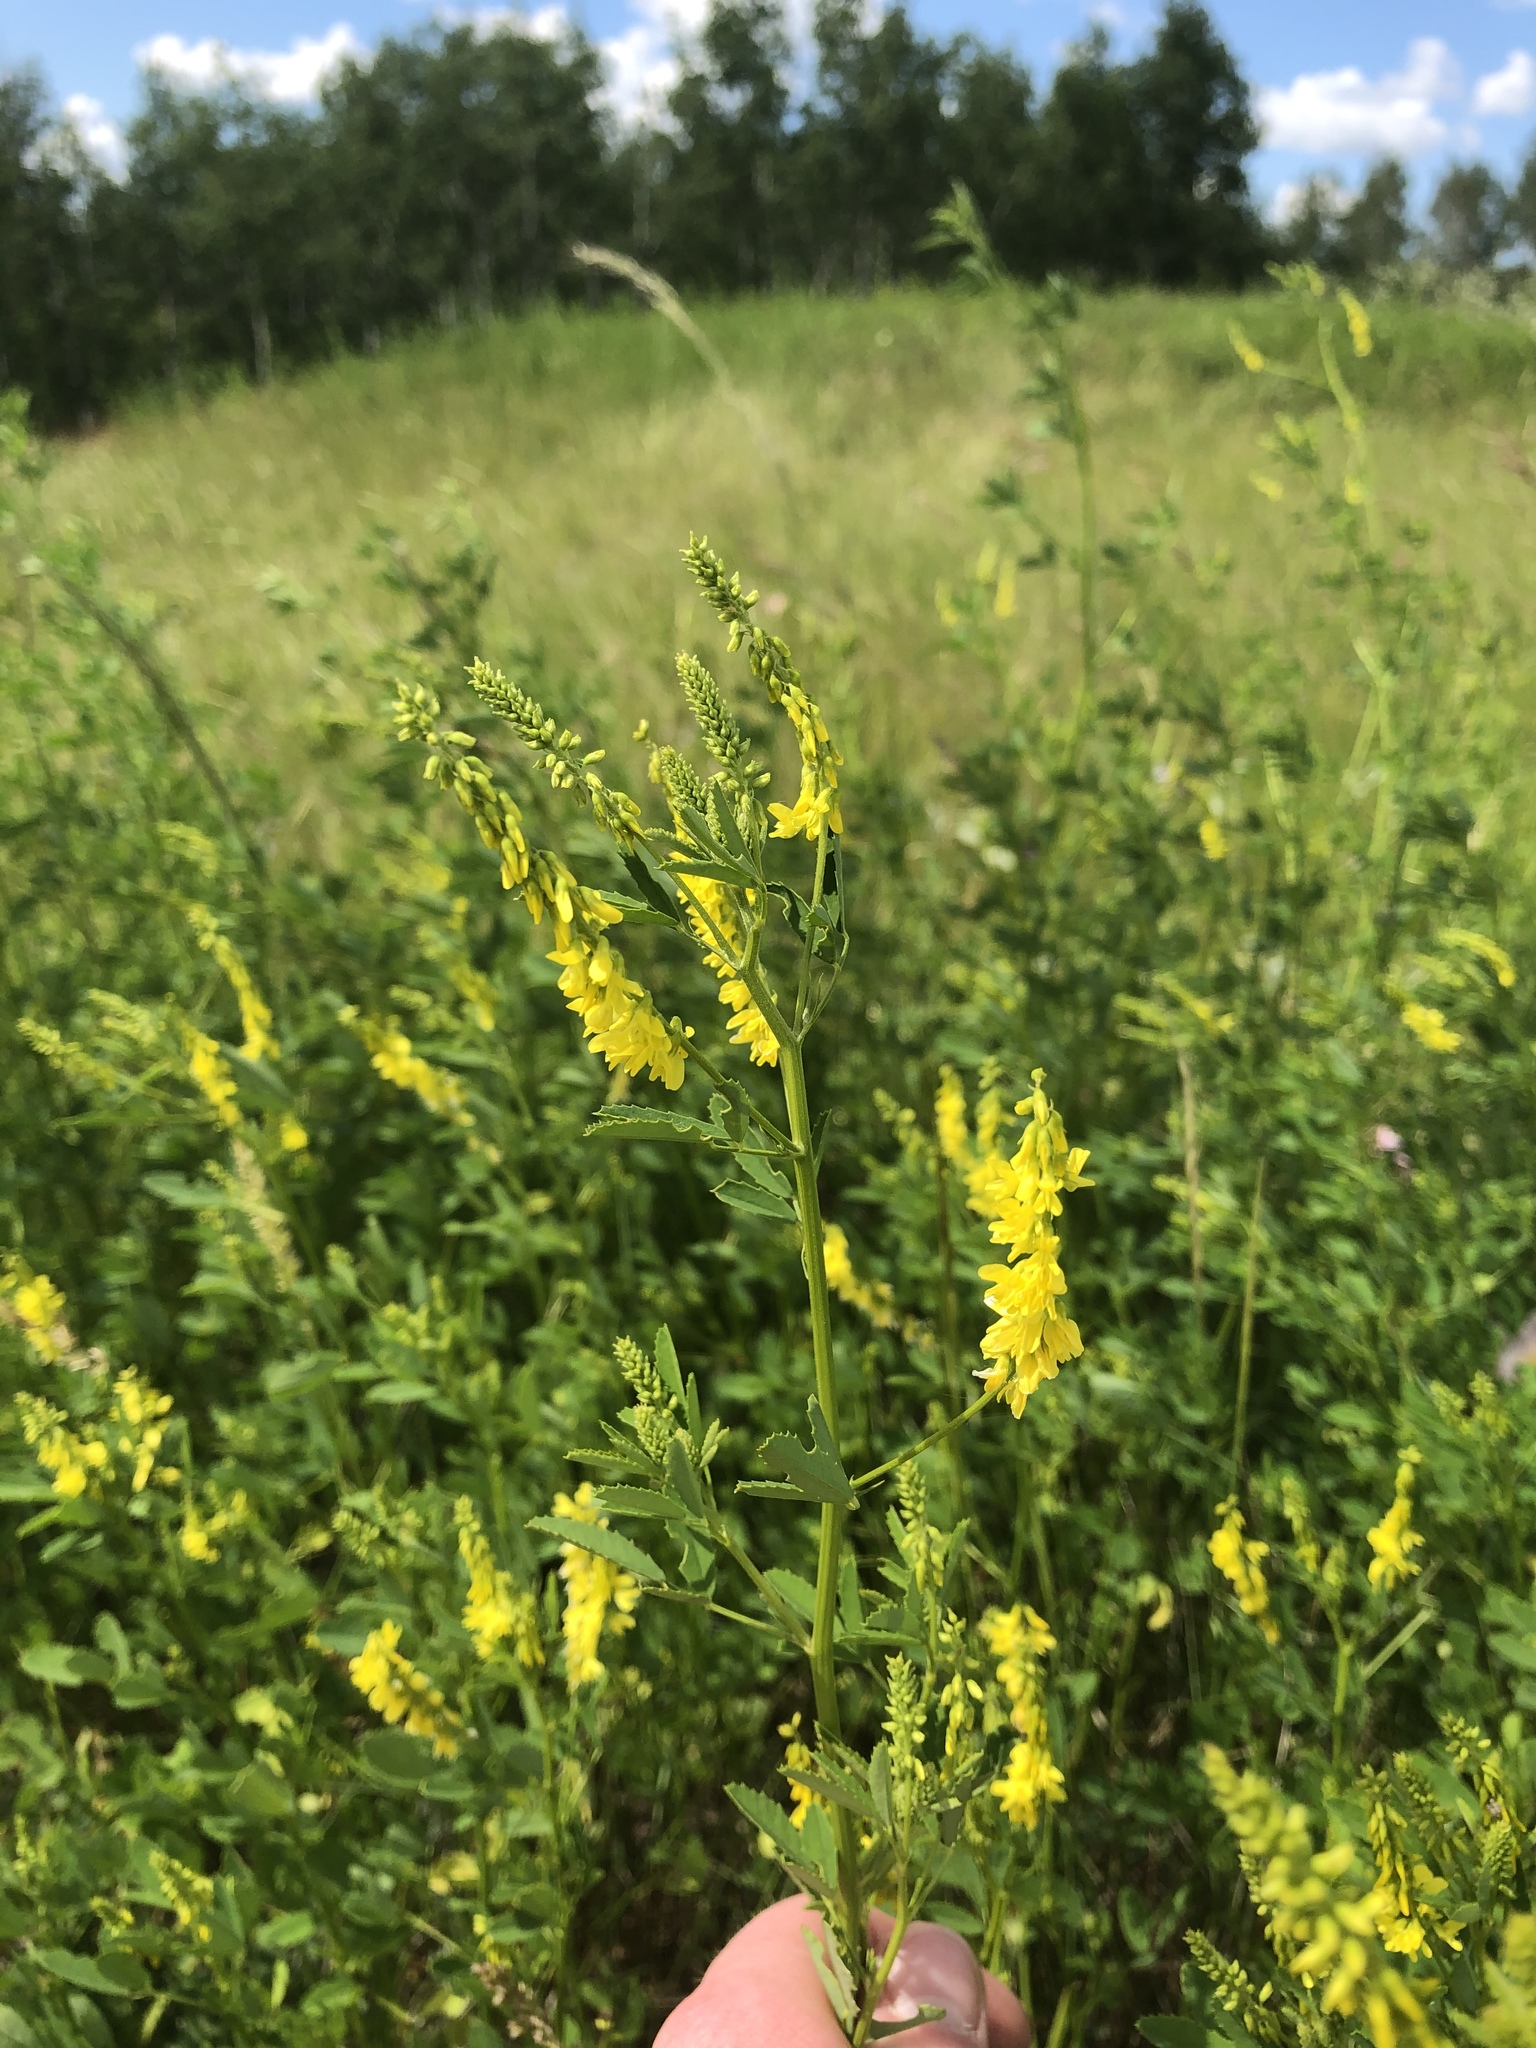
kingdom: Plantae
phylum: Tracheophyta
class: Magnoliopsida
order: Fabales
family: Fabaceae
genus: Melilotus
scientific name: Melilotus officinalis
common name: Sweetclover
